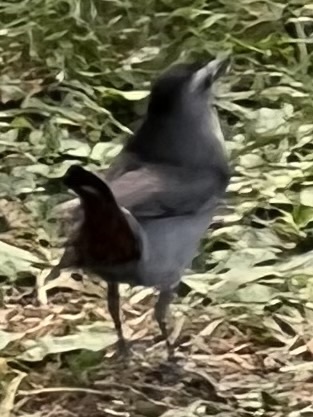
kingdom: Animalia
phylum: Chordata
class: Aves
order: Passeriformes
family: Mimidae
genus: Dumetella
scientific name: Dumetella carolinensis
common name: Gray catbird
